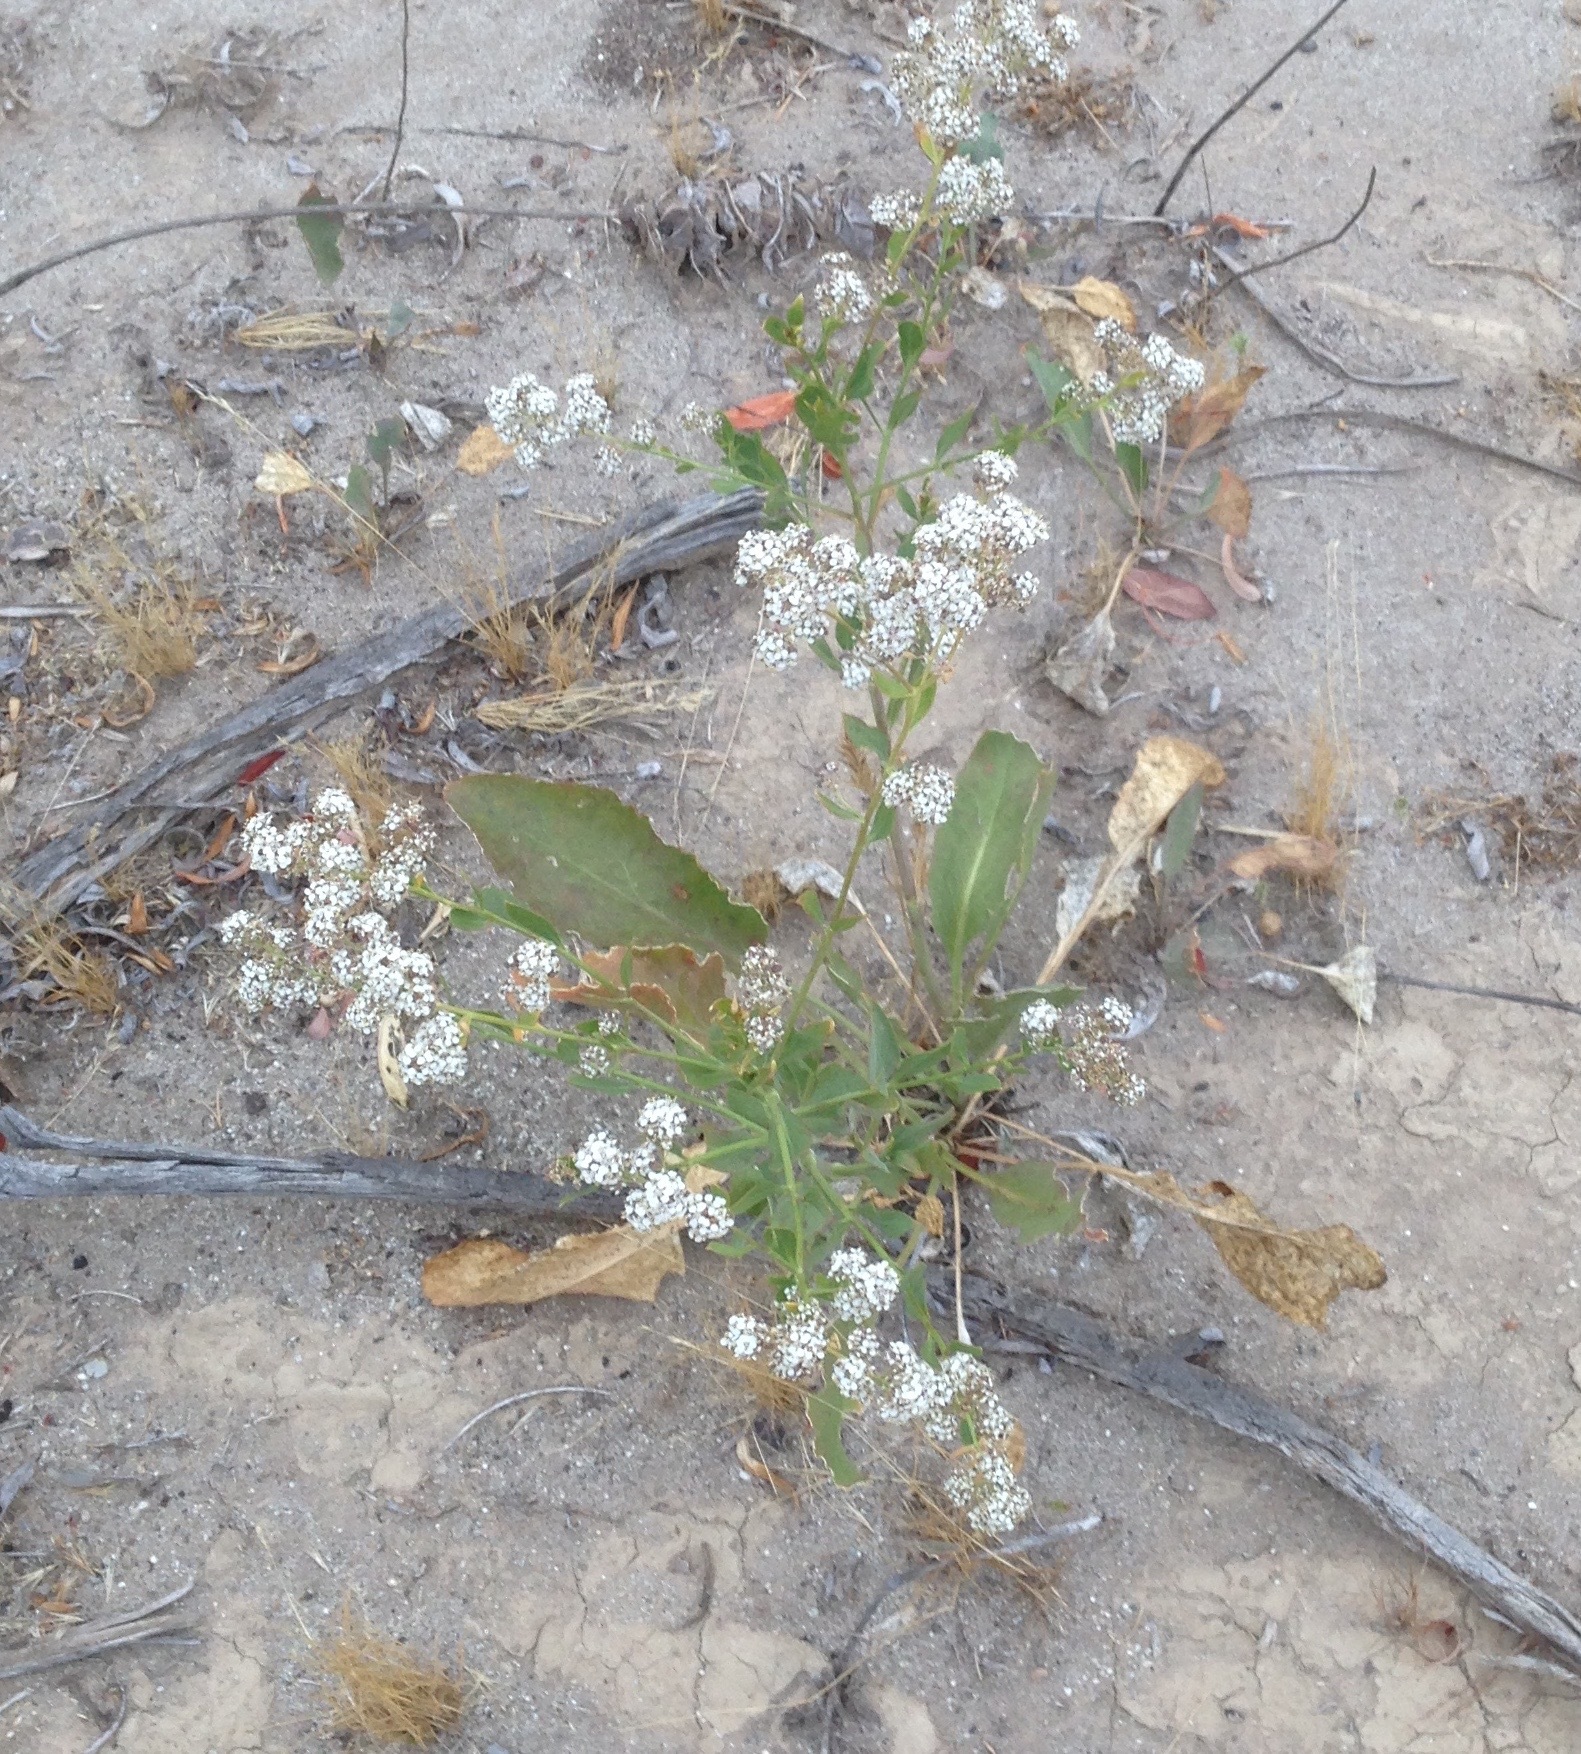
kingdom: Plantae
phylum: Tracheophyta
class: Magnoliopsida
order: Brassicales
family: Brassicaceae
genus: Lepidium
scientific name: Lepidium latifolium
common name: Dittander
